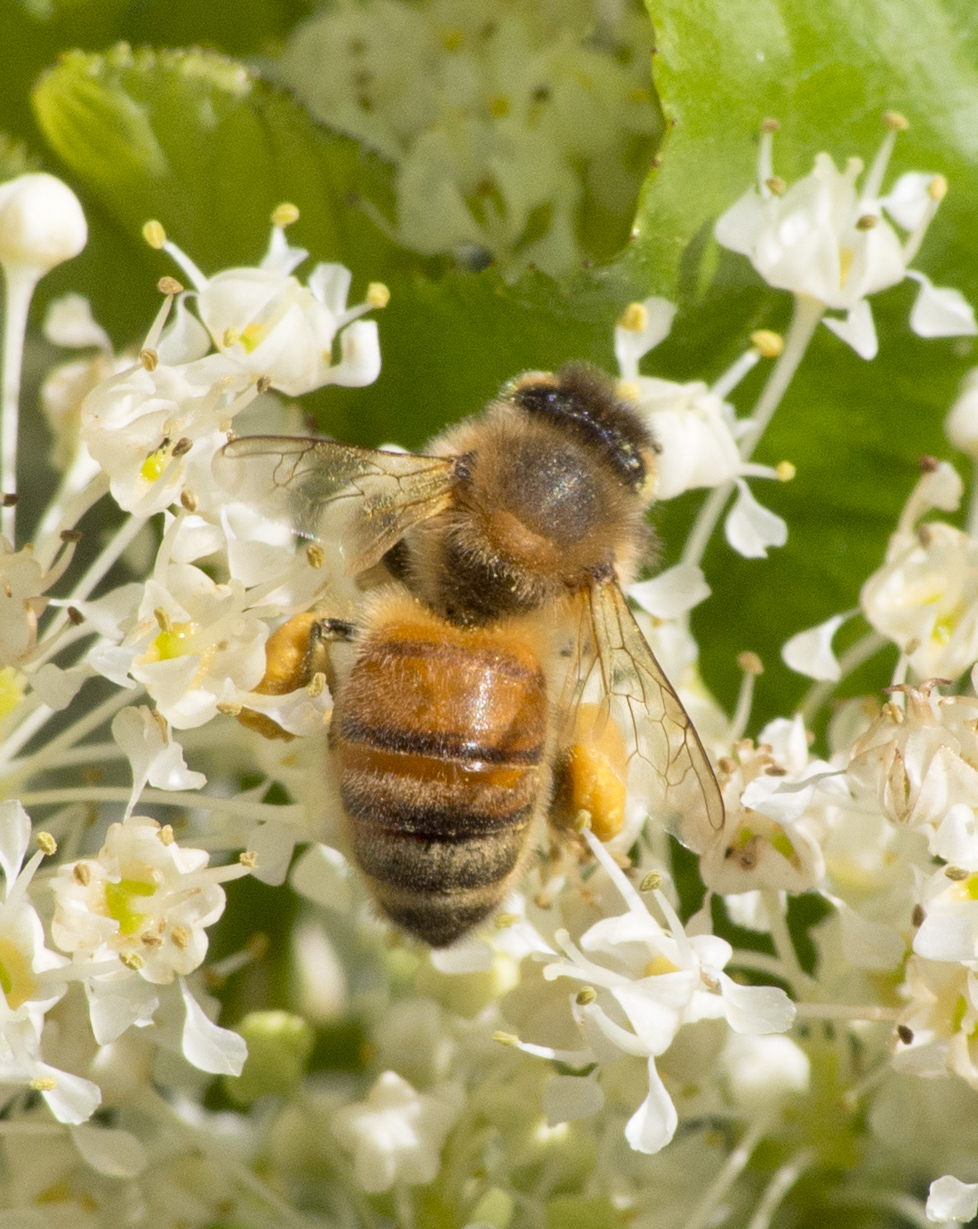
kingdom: Animalia
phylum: Arthropoda
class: Insecta
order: Hymenoptera
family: Apidae
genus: Apis
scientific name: Apis mellifera
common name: Honey bee
